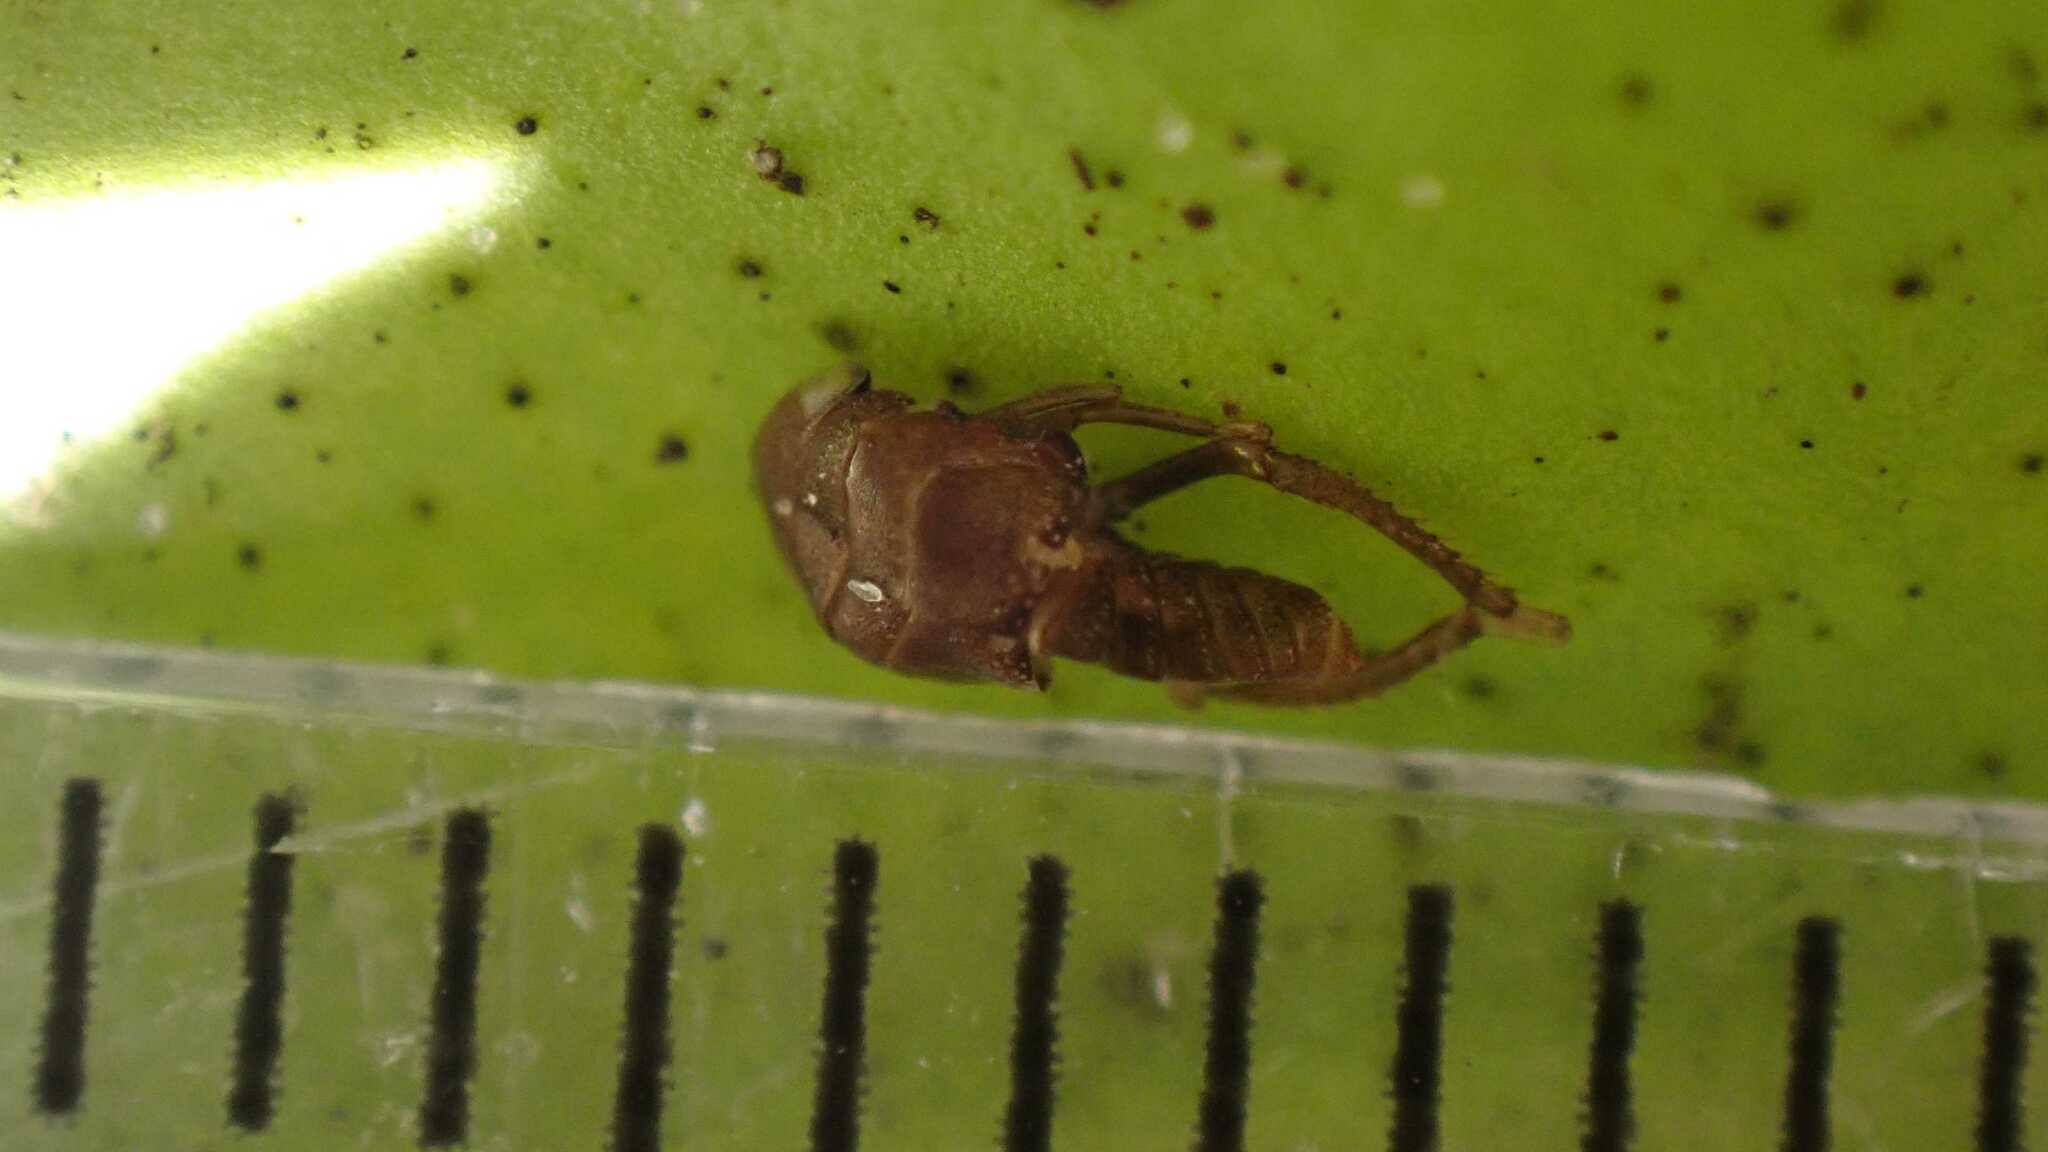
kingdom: Animalia
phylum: Arthropoda
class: Insecta
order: Hemiptera
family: Cicadellidae
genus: Penthimia
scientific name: Penthimia nigra
